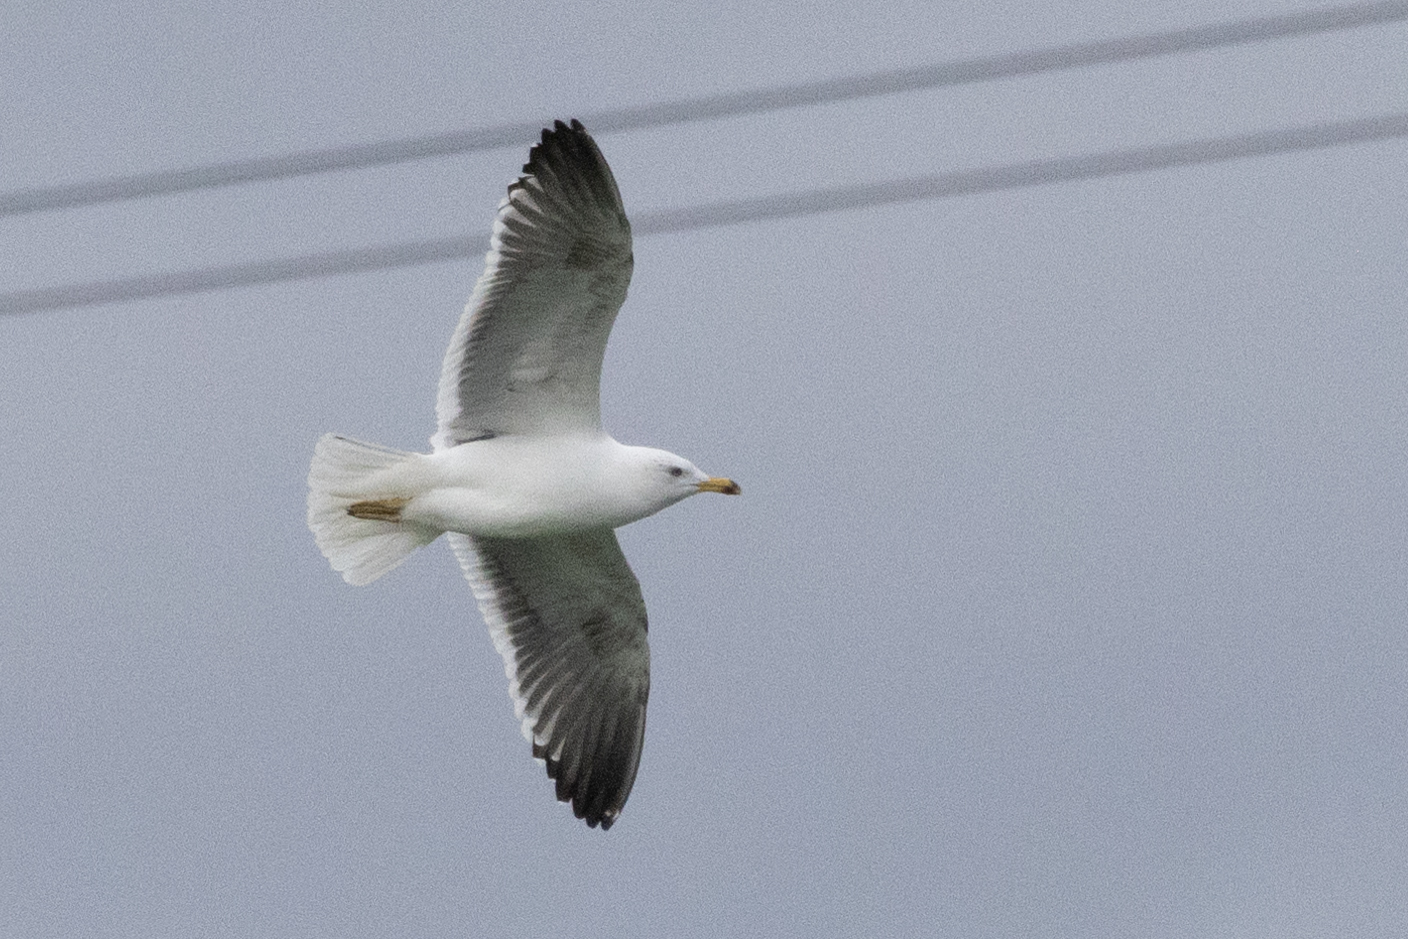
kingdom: Animalia
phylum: Chordata
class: Aves
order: Charadriiformes
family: Laridae
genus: Larus
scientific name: Larus fuscus
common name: Lesser black-backed gull
